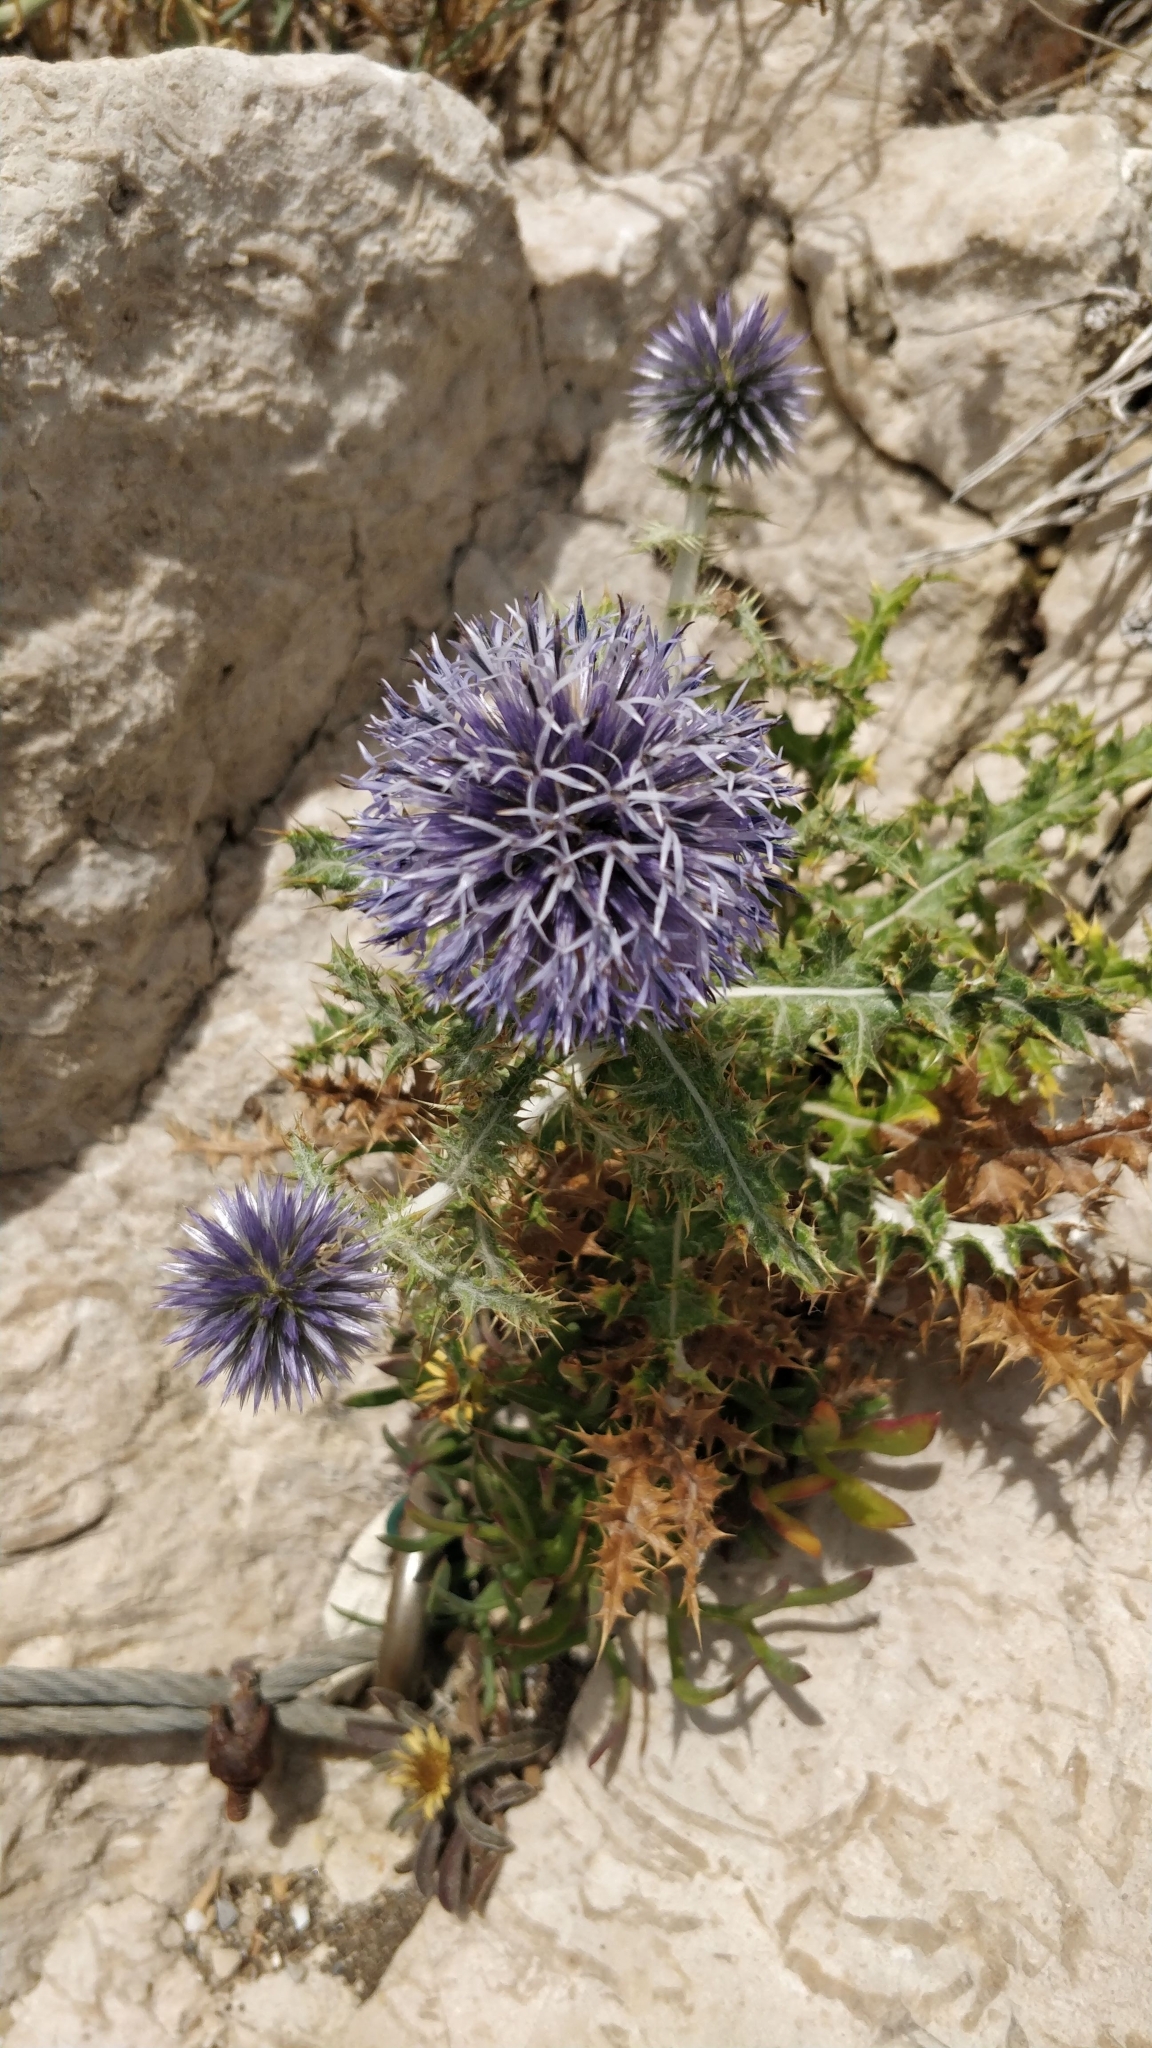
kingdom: Plantae
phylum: Tracheophyta
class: Magnoliopsida
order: Asterales
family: Asteraceae
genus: Echinops
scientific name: Echinops ritro
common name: Globe thistle
